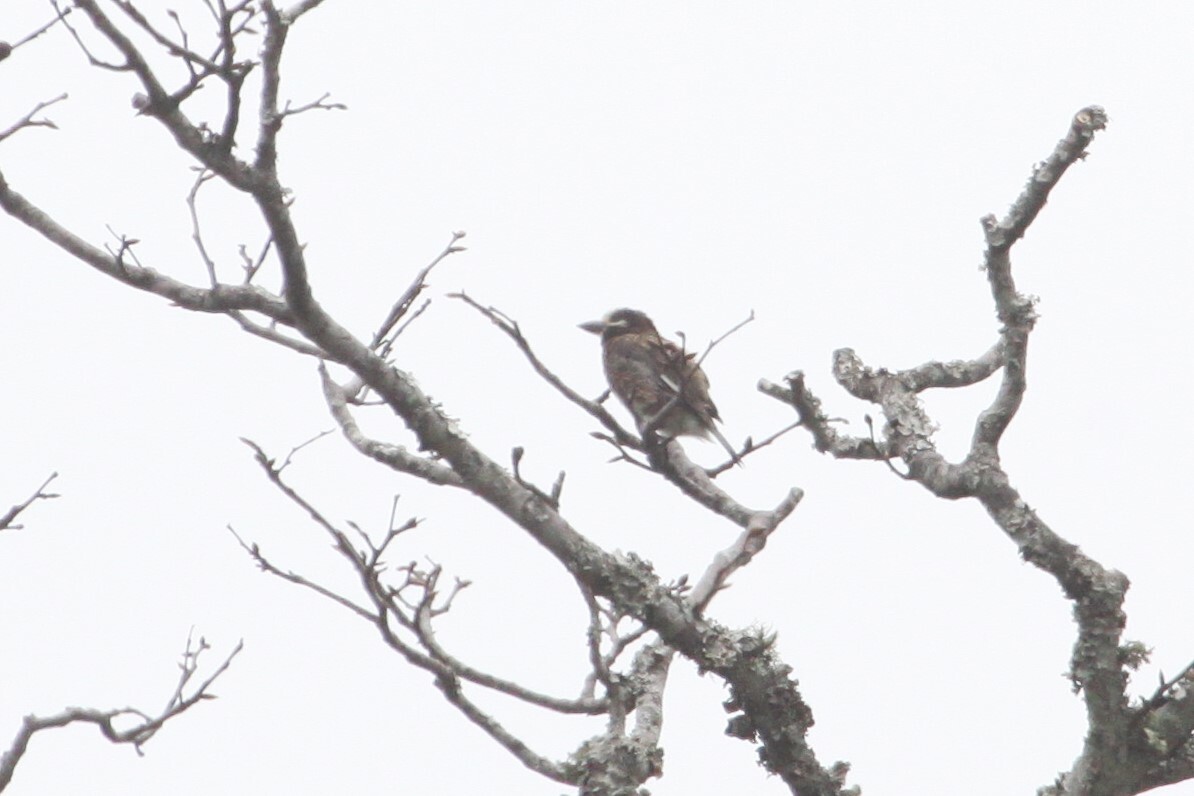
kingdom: Animalia
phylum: Chordata
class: Aves
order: Piciformes
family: Lybiidae
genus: Stactolaema
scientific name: Stactolaema whytii
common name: Whyte's barbet
